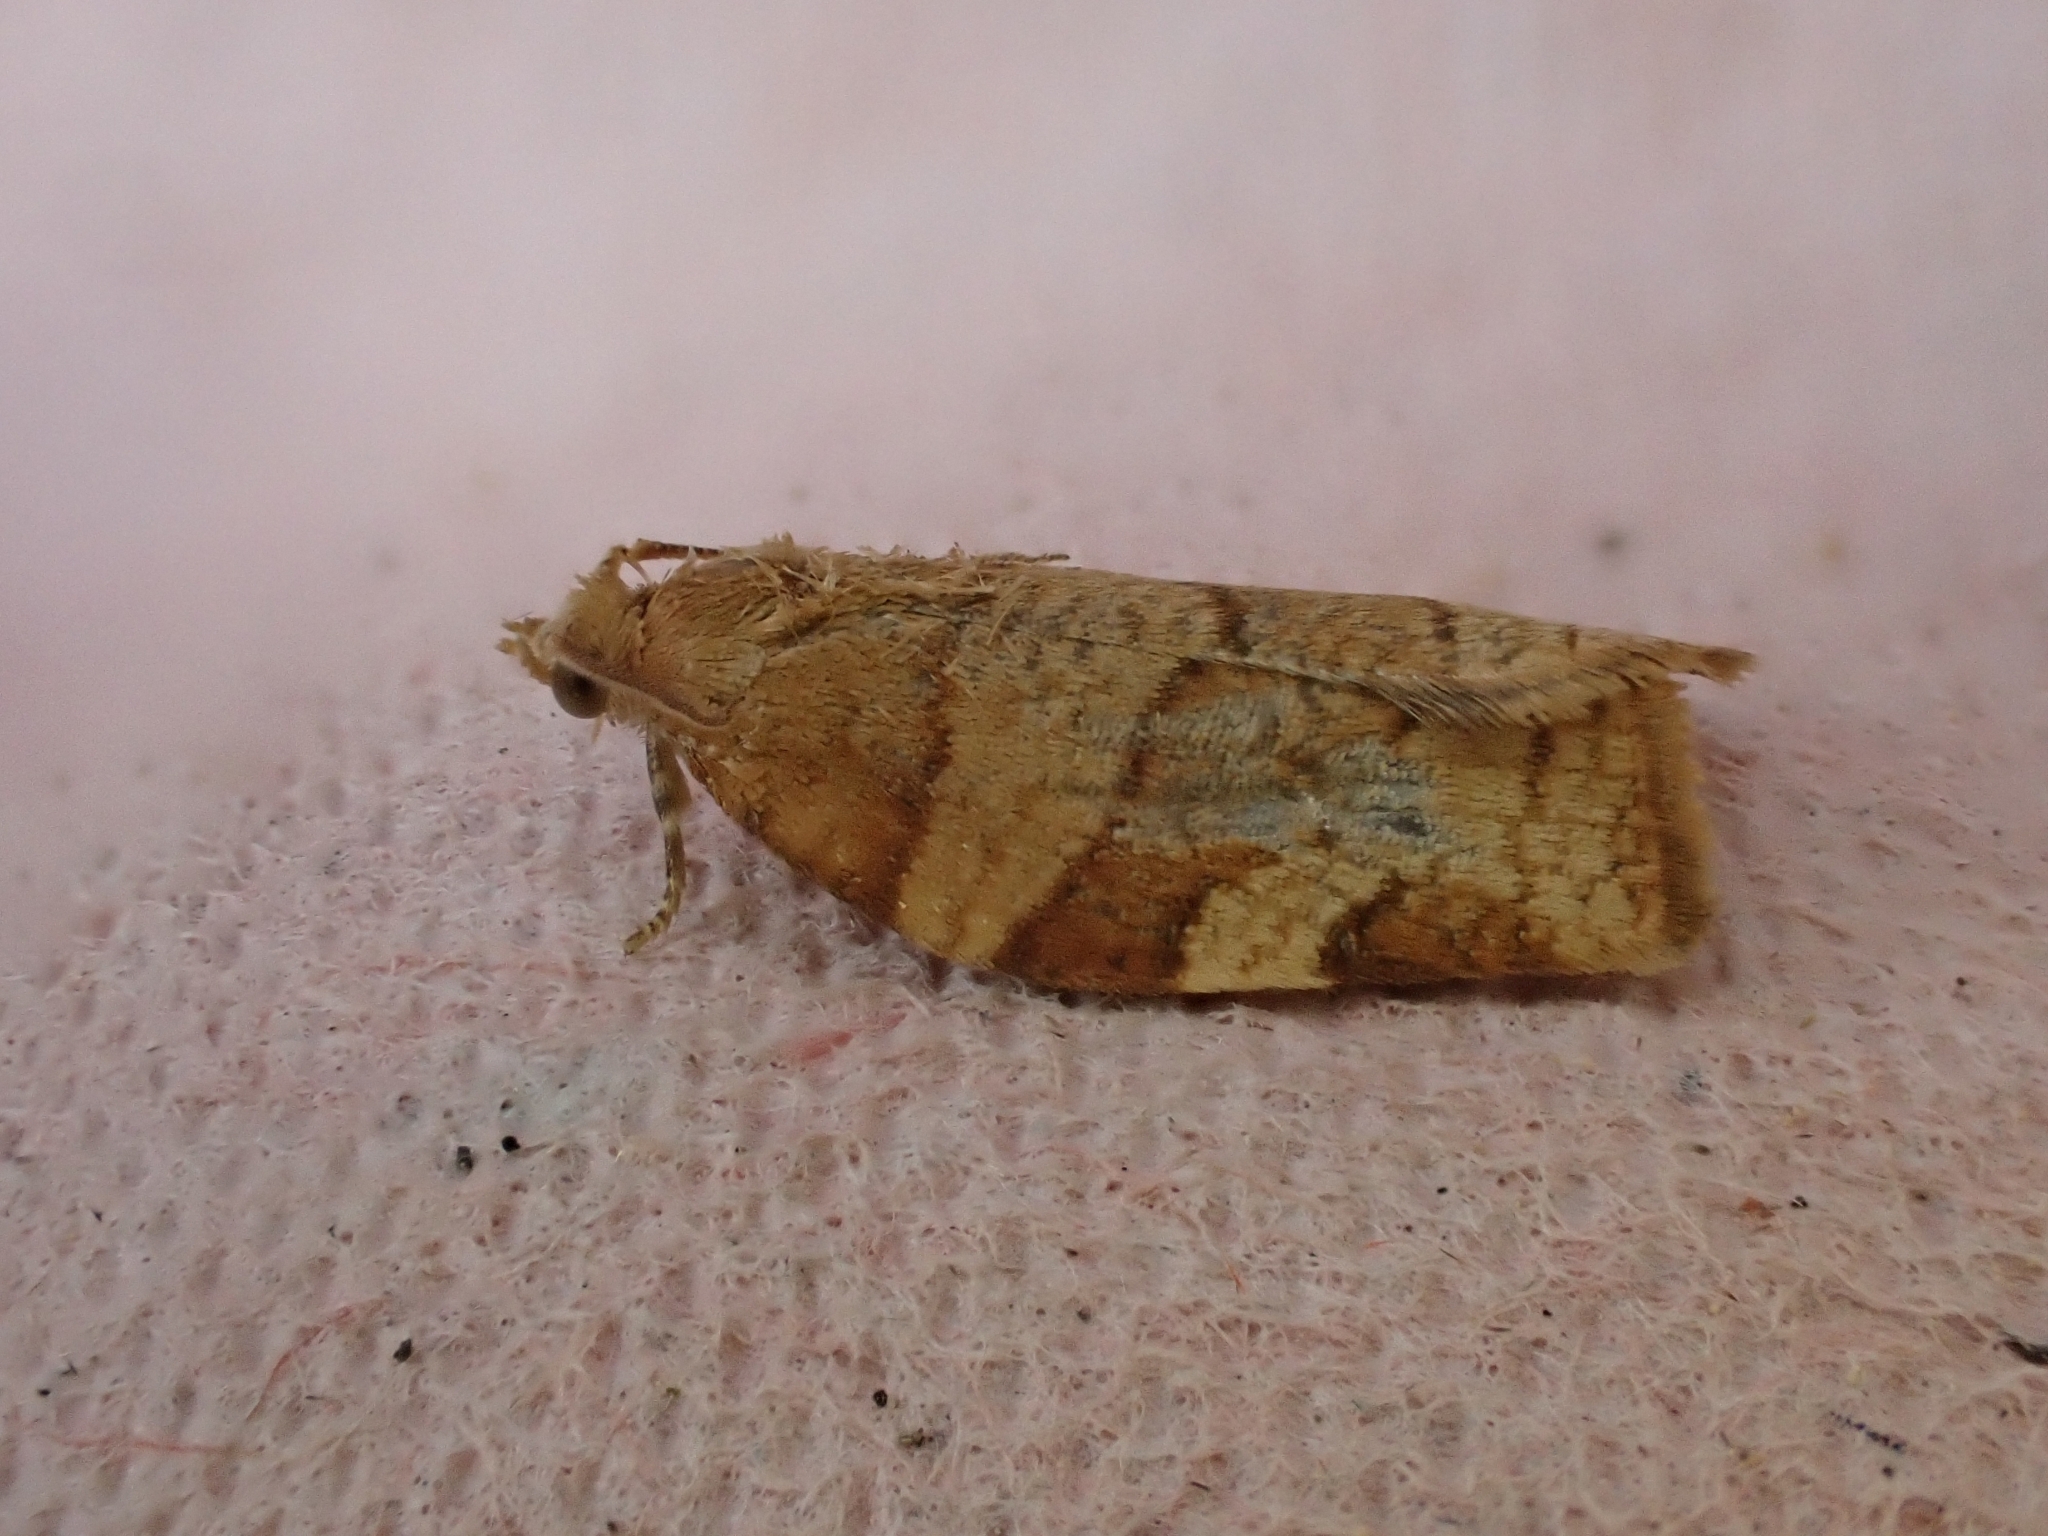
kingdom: Animalia
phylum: Arthropoda
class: Insecta
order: Lepidoptera
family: Tortricidae
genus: Pandemis
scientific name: Pandemis cerasana
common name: Barred fruit-tree tortrix
